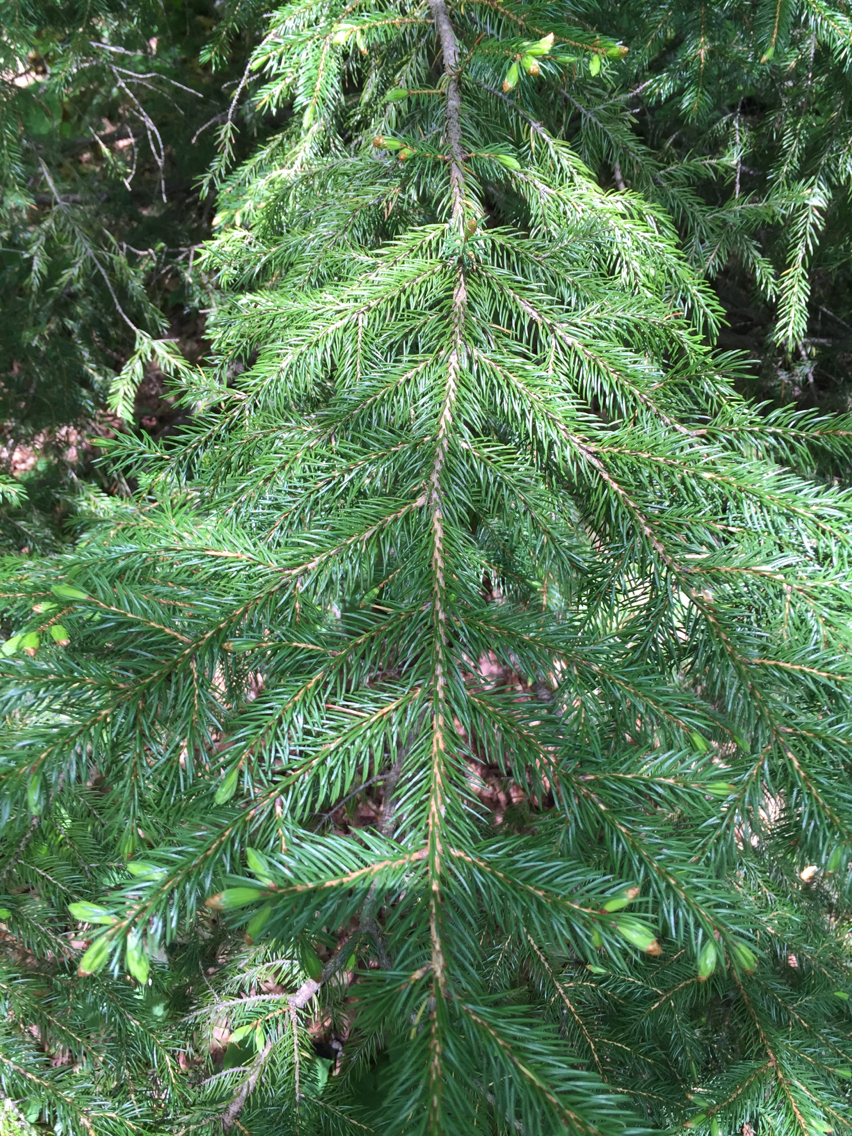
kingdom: Plantae
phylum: Tracheophyta
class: Pinopsida
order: Pinales
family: Pinaceae
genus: Picea
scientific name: Picea rubens
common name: Red spruce
